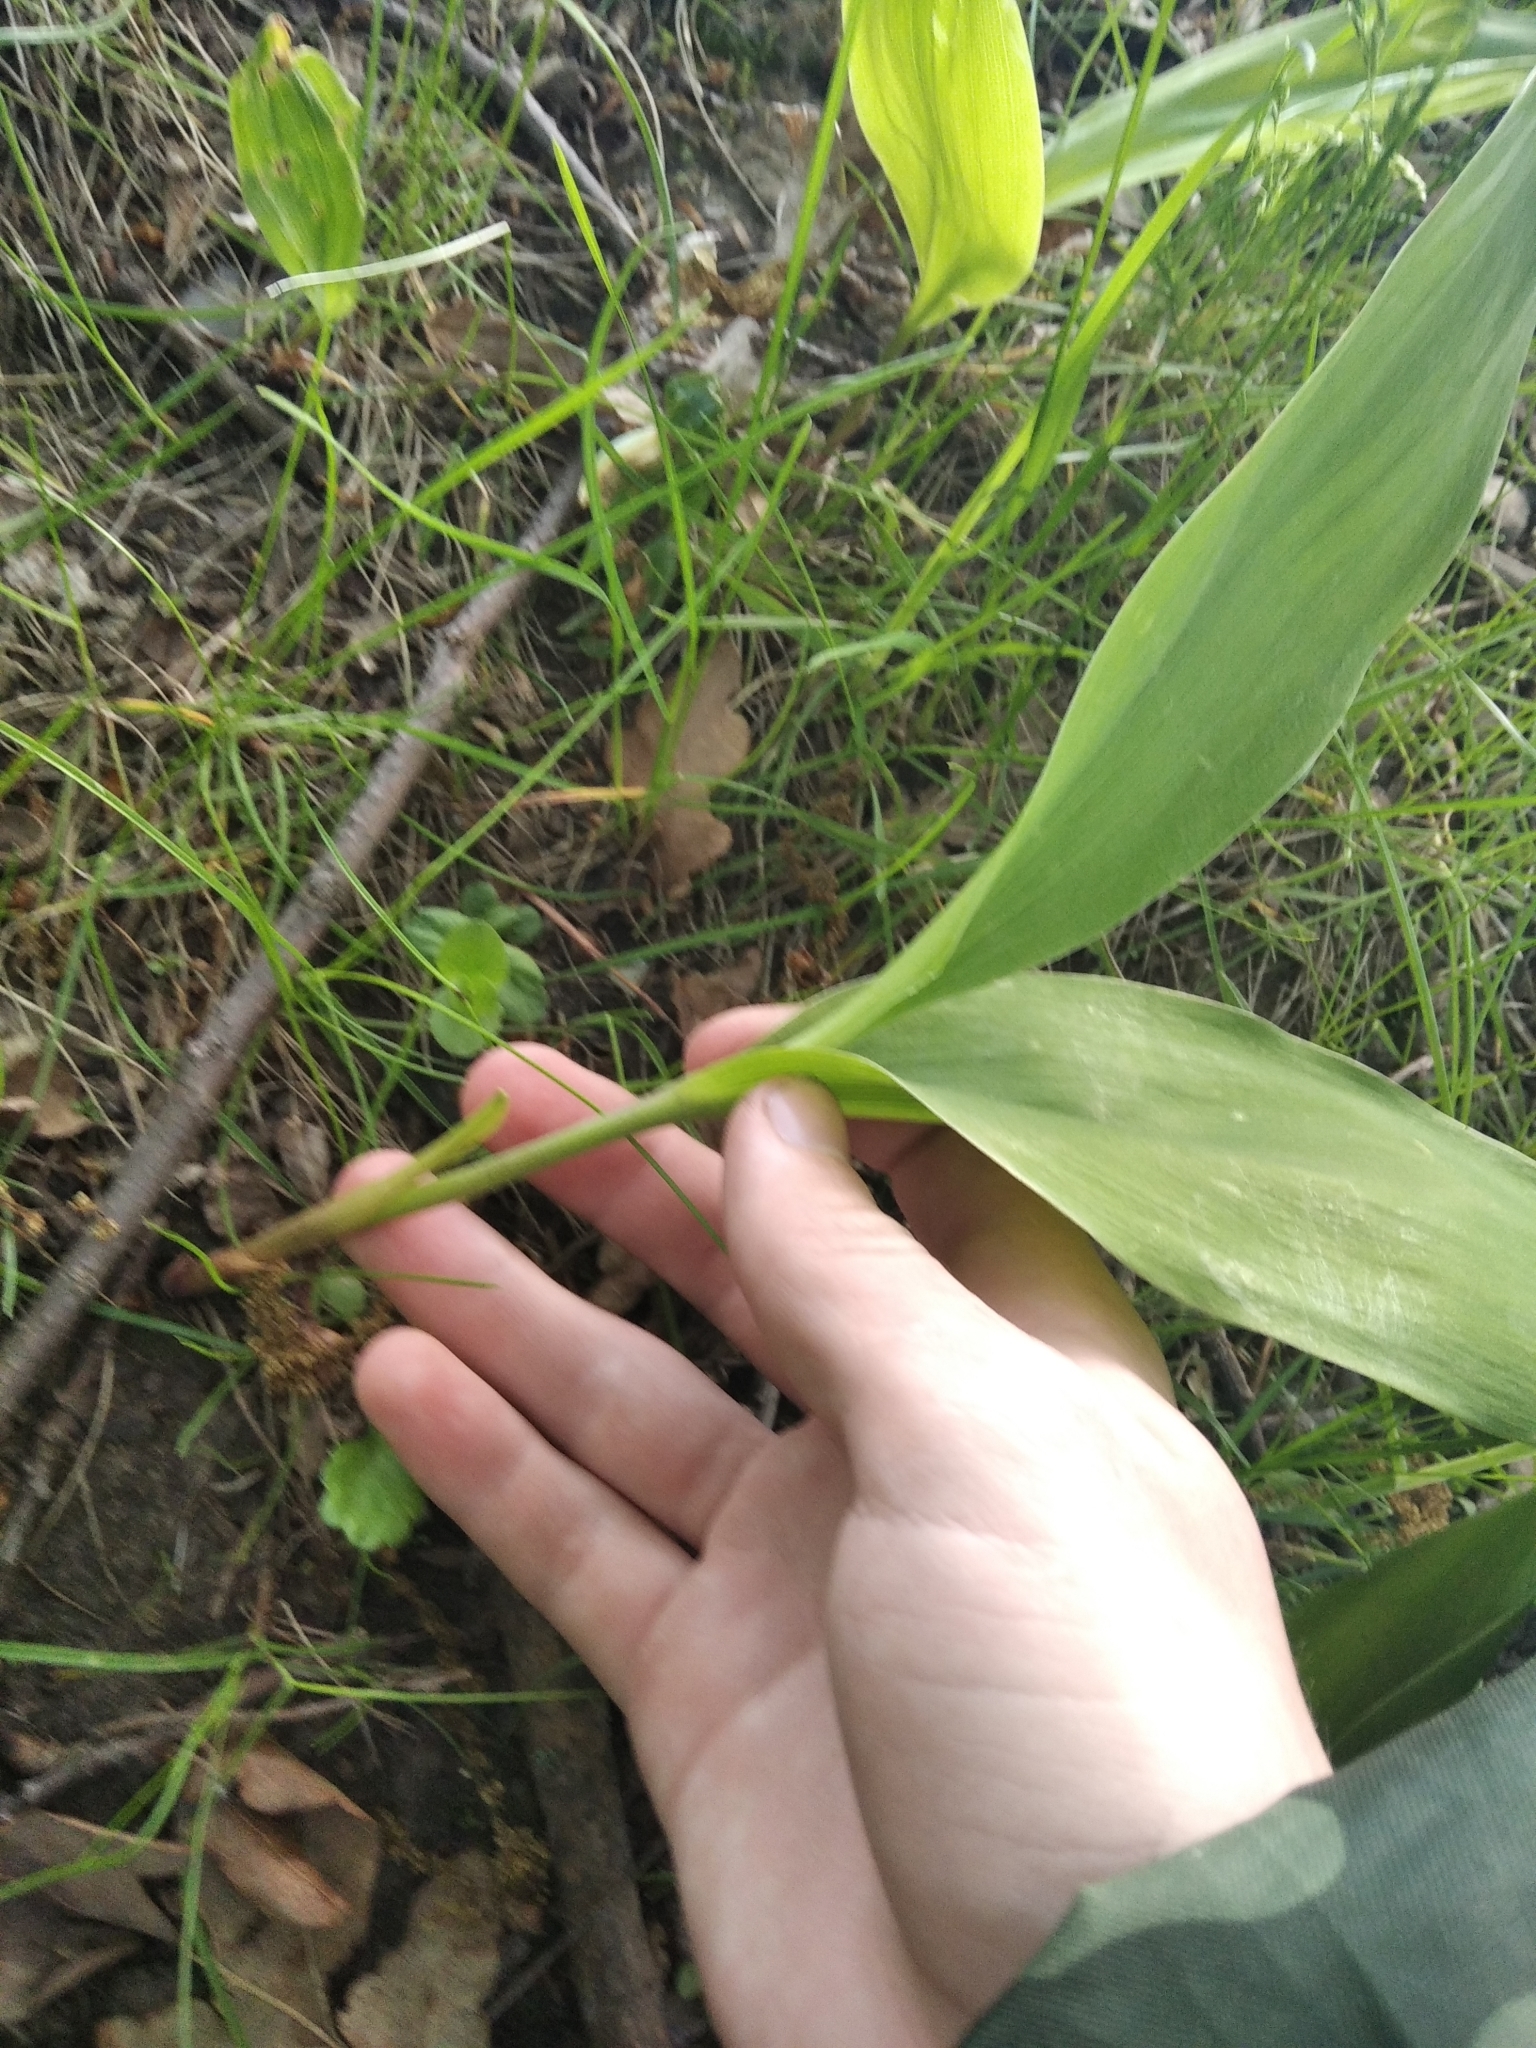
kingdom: Plantae
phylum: Tracheophyta
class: Liliopsida
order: Asparagales
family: Asparagaceae
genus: Convallaria
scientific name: Convallaria majalis
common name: Lily-of-the-valley
